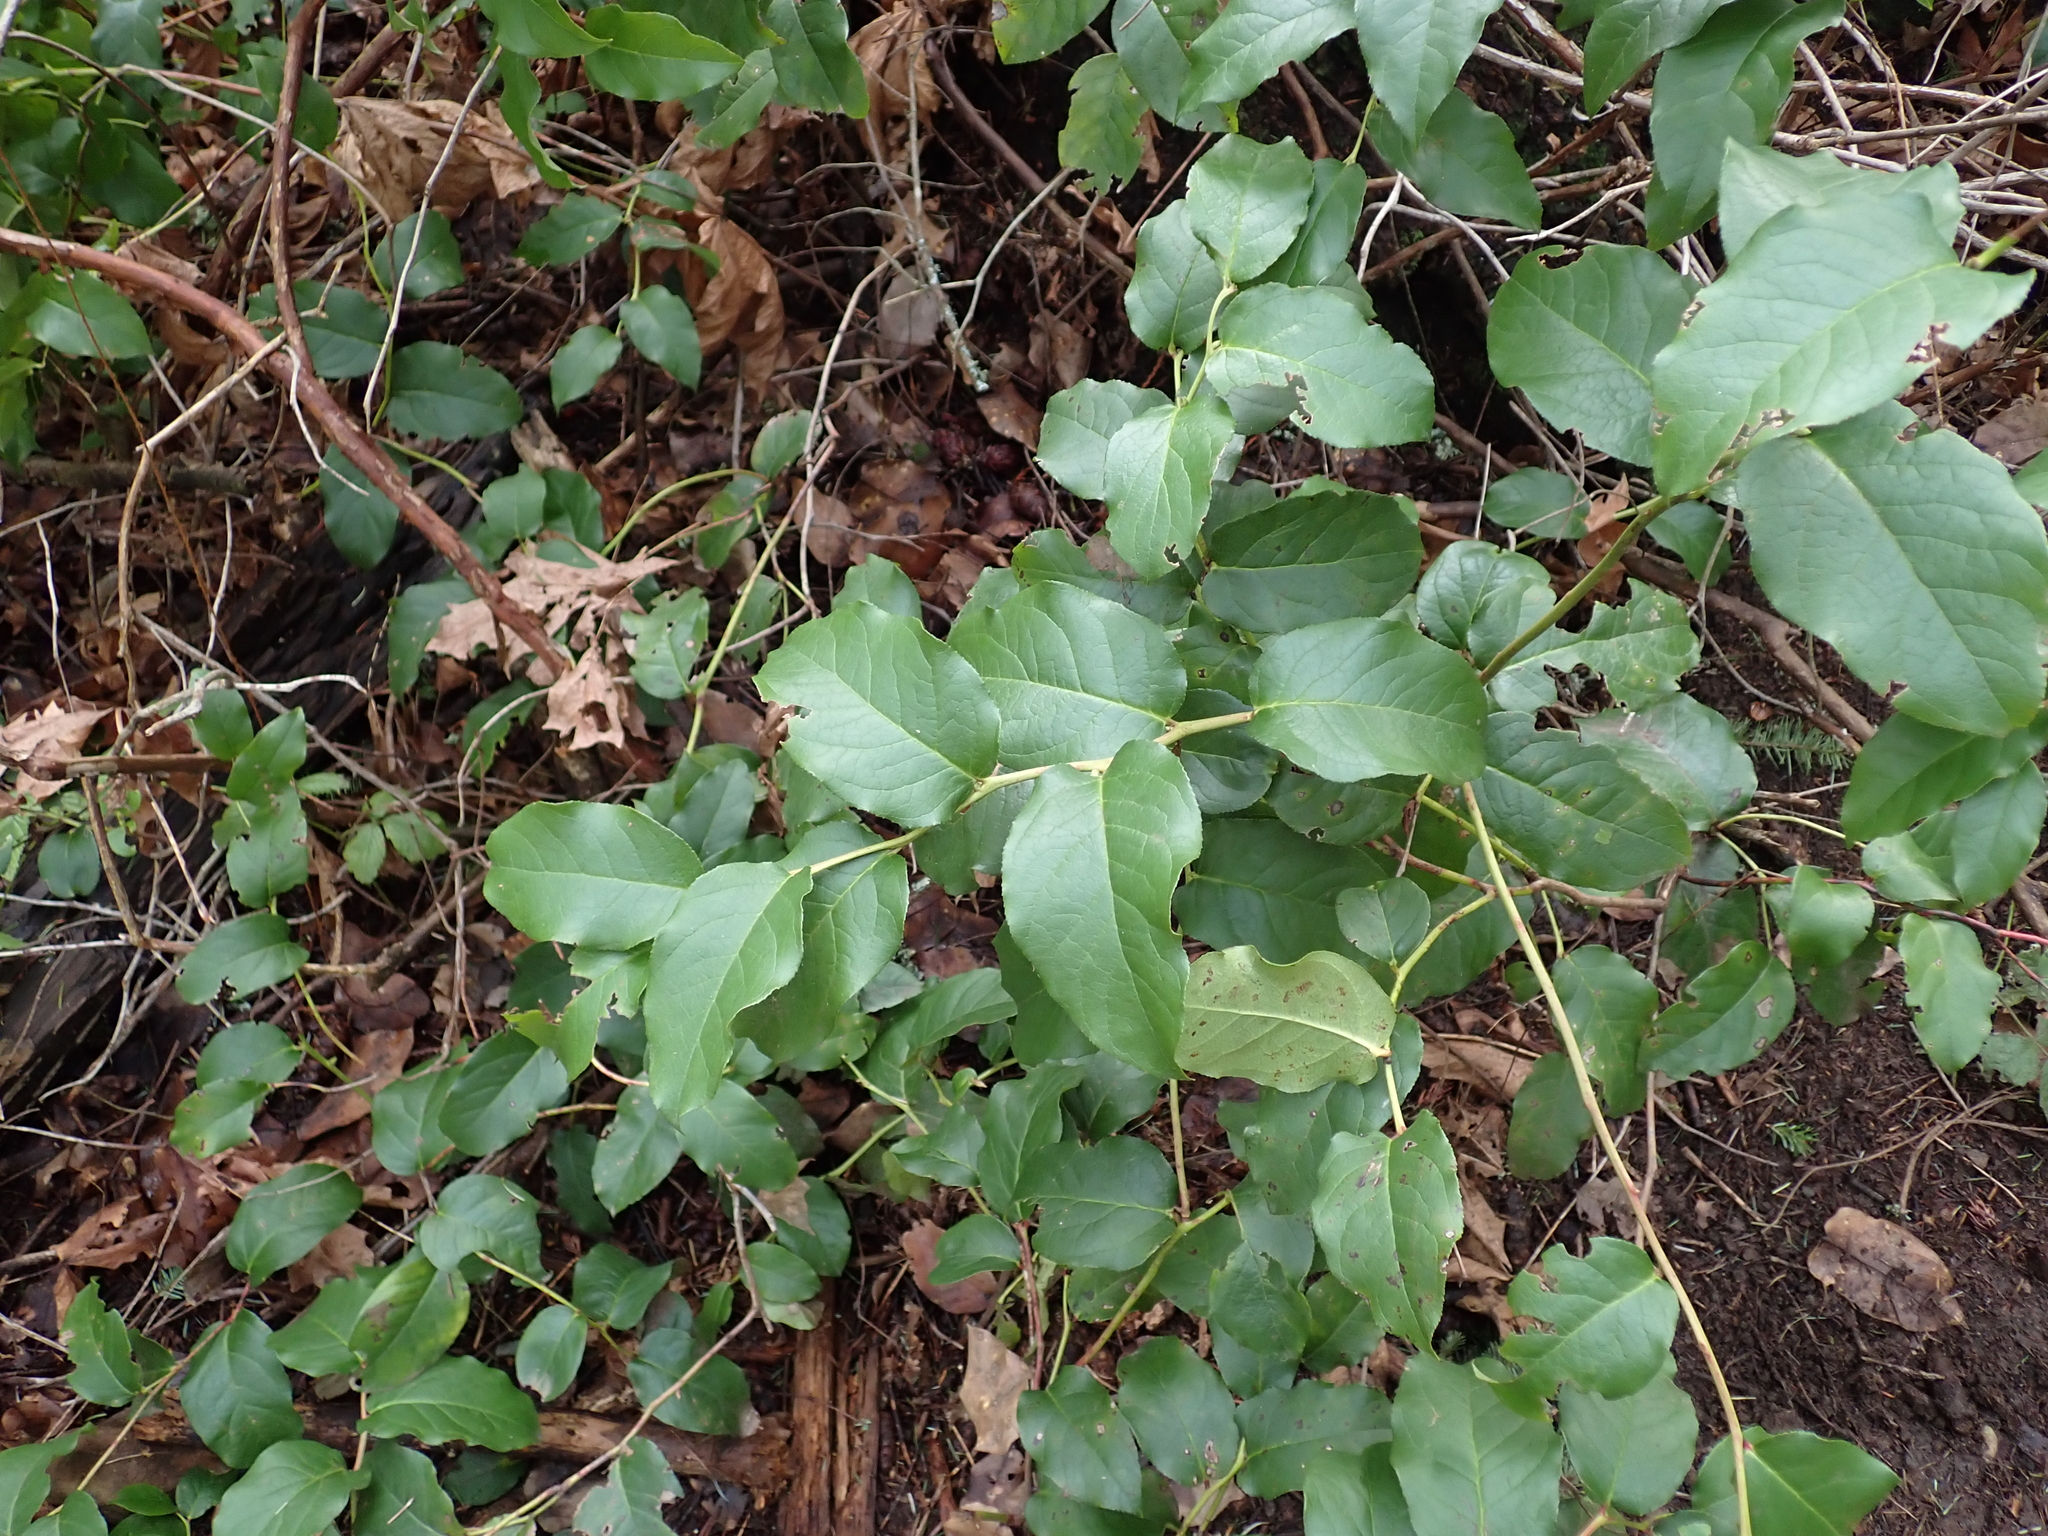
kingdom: Plantae
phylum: Tracheophyta
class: Magnoliopsida
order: Ericales
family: Ericaceae
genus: Gaultheria
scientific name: Gaultheria shallon
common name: Shallon
